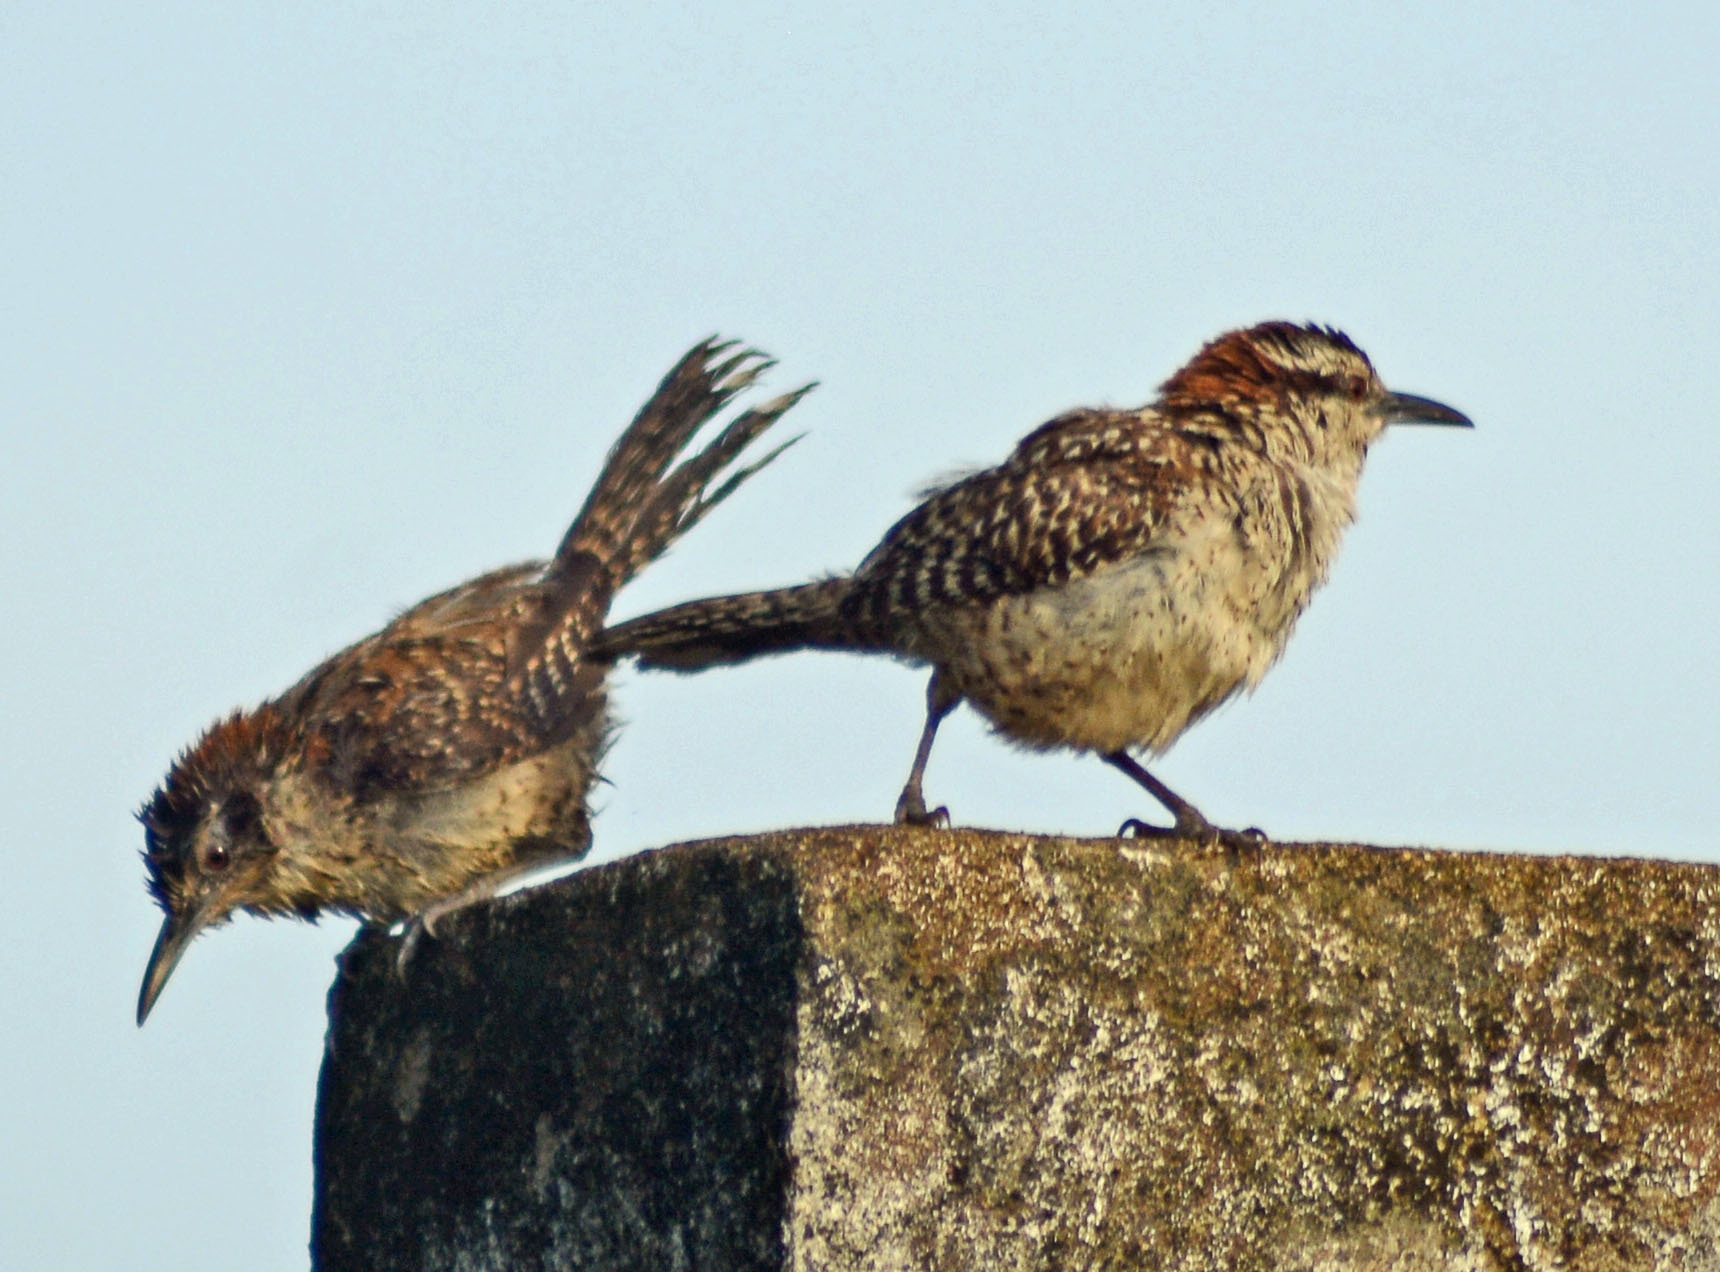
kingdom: Animalia
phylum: Chordata
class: Aves
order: Passeriformes
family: Troglodytidae
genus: Campylorhynchus
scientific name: Campylorhynchus rufinucha
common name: Rufous-naped wren
